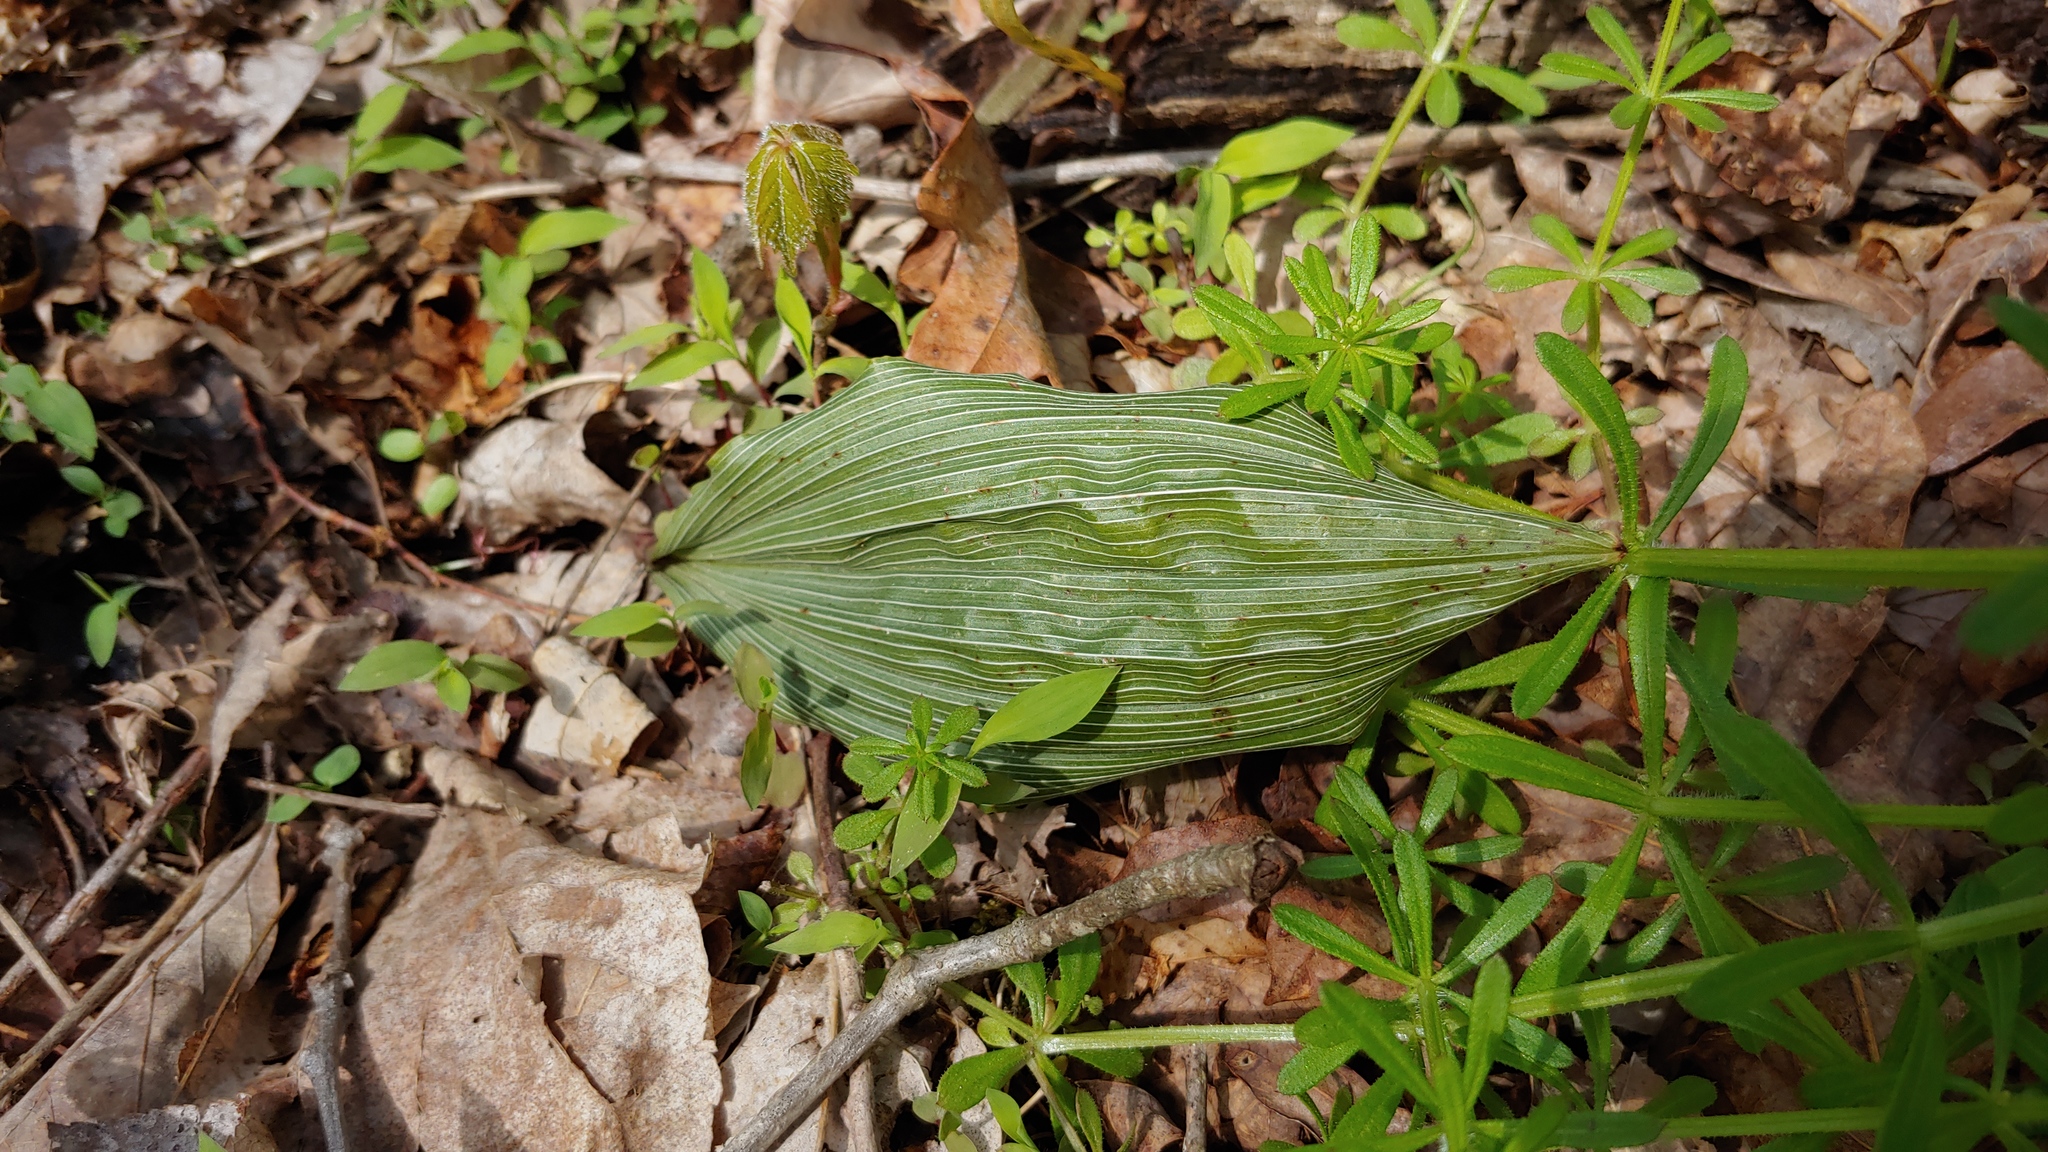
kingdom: Plantae
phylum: Tracheophyta
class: Liliopsida
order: Asparagales
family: Orchidaceae
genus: Aplectrum
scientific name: Aplectrum hyemale
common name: Adam-and-eve
